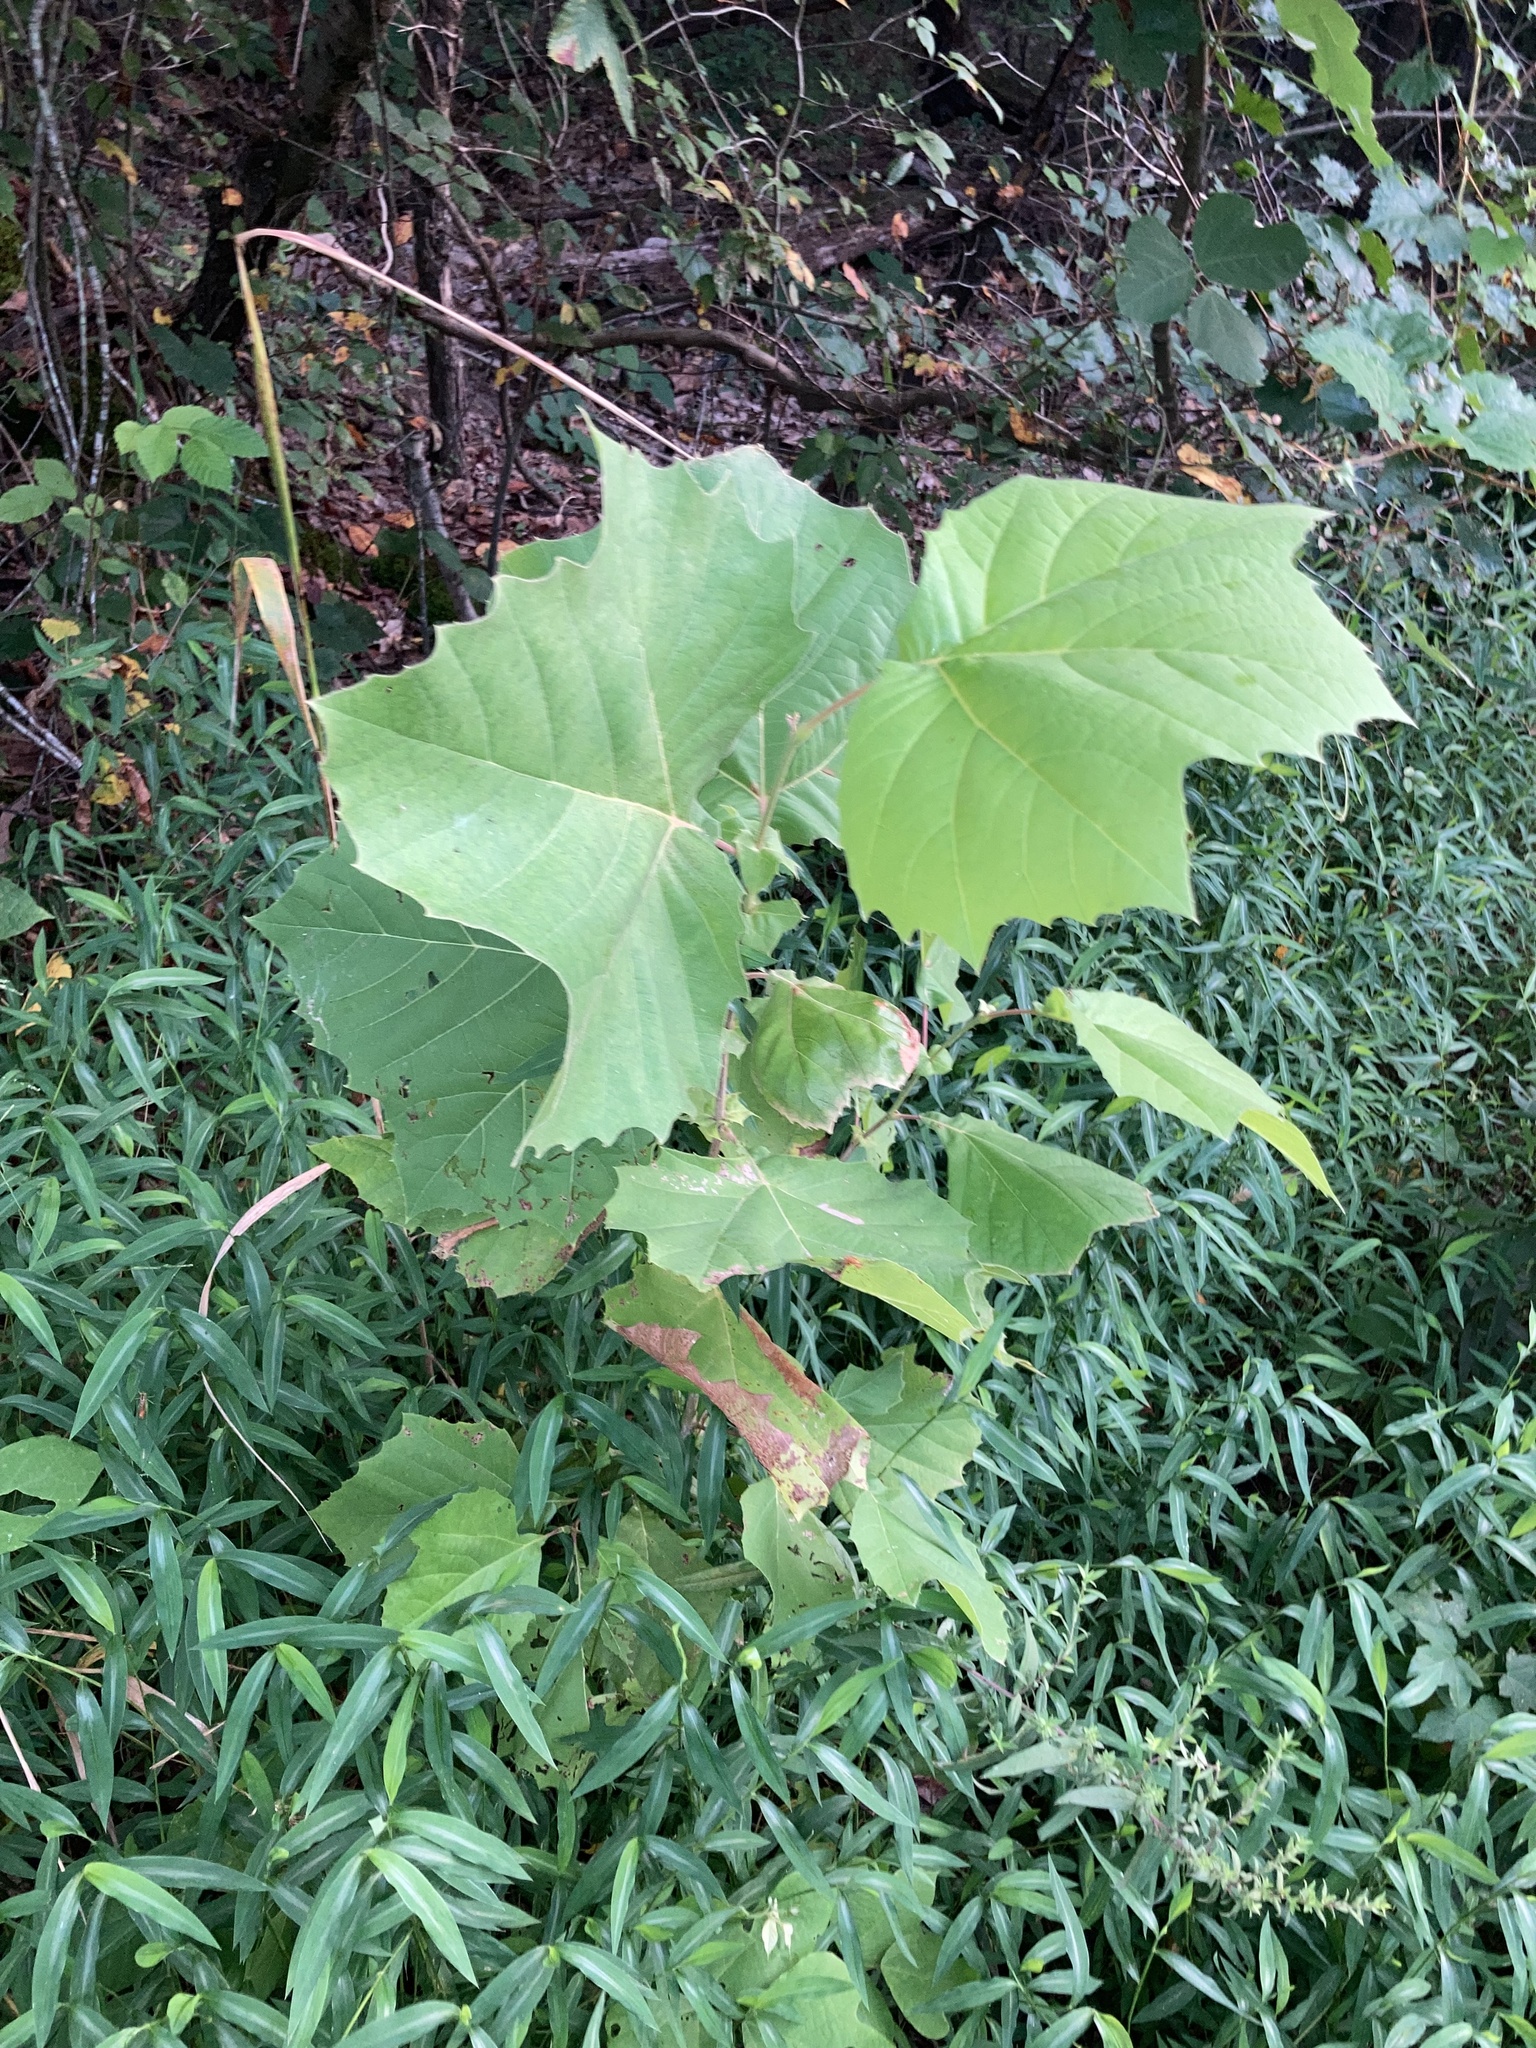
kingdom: Plantae
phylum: Tracheophyta
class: Magnoliopsida
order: Proteales
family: Platanaceae
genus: Platanus
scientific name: Platanus occidentalis
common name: American sycamore
